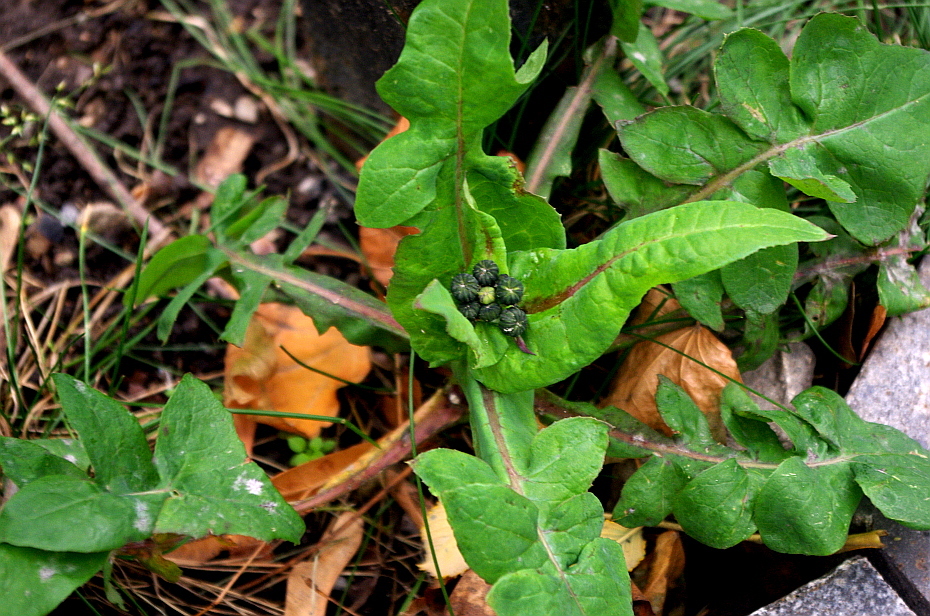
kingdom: Plantae
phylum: Tracheophyta
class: Magnoliopsida
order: Asterales
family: Asteraceae
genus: Sonchus
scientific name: Sonchus oleraceus
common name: Common sowthistle
